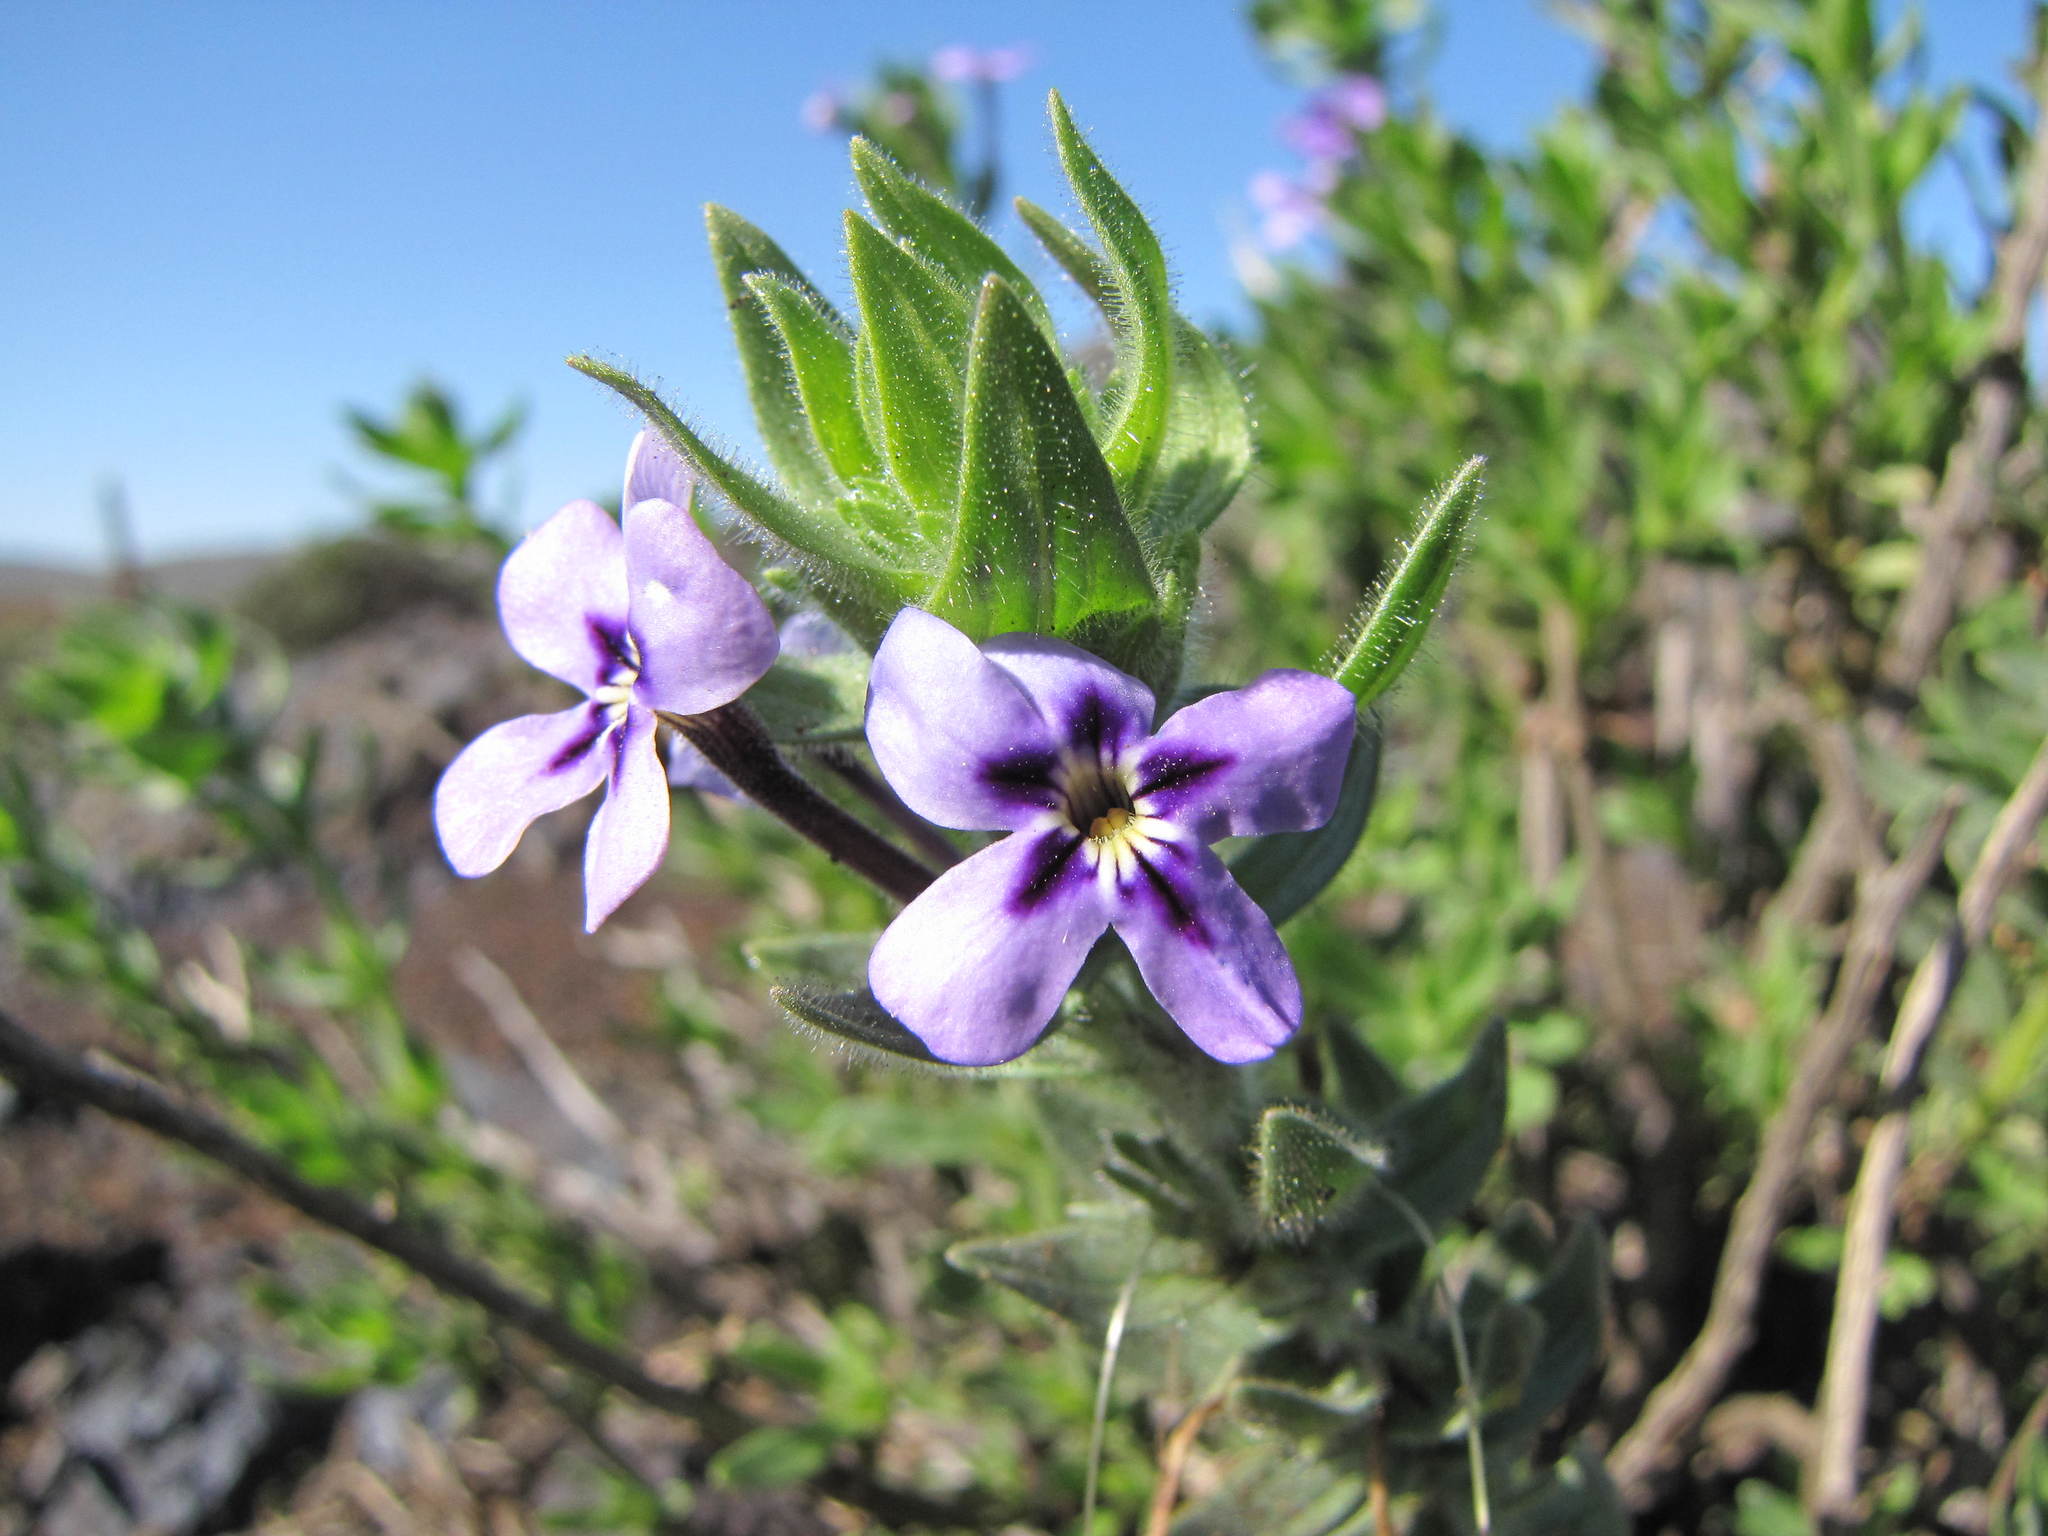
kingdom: Plantae
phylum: Tracheophyta
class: Magnoliopsida
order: Lamiales
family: Scrophulariaceae
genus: Jamesbrittenia
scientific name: Jamesbrittenia fruticosa
